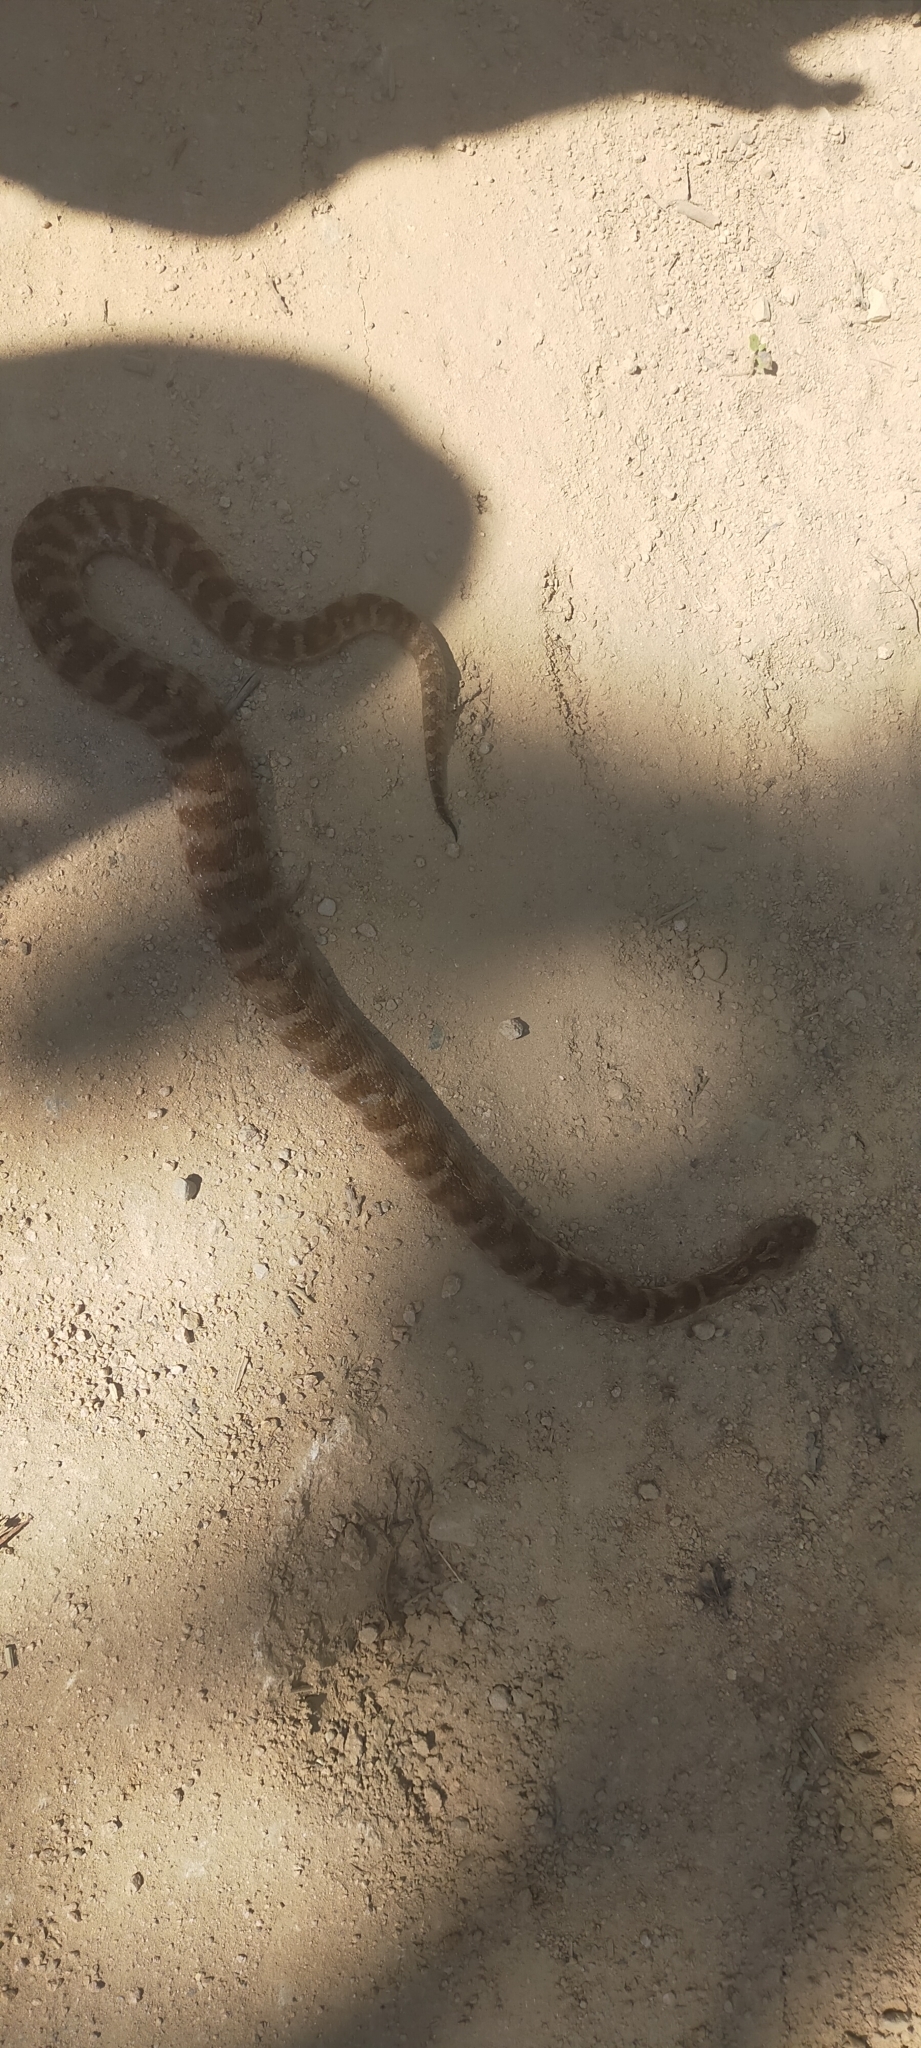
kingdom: Animalia
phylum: Chordata
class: Squamata
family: Viperidae
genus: Gloydius
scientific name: Gloydius intermedius
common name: Central asian pit viper
